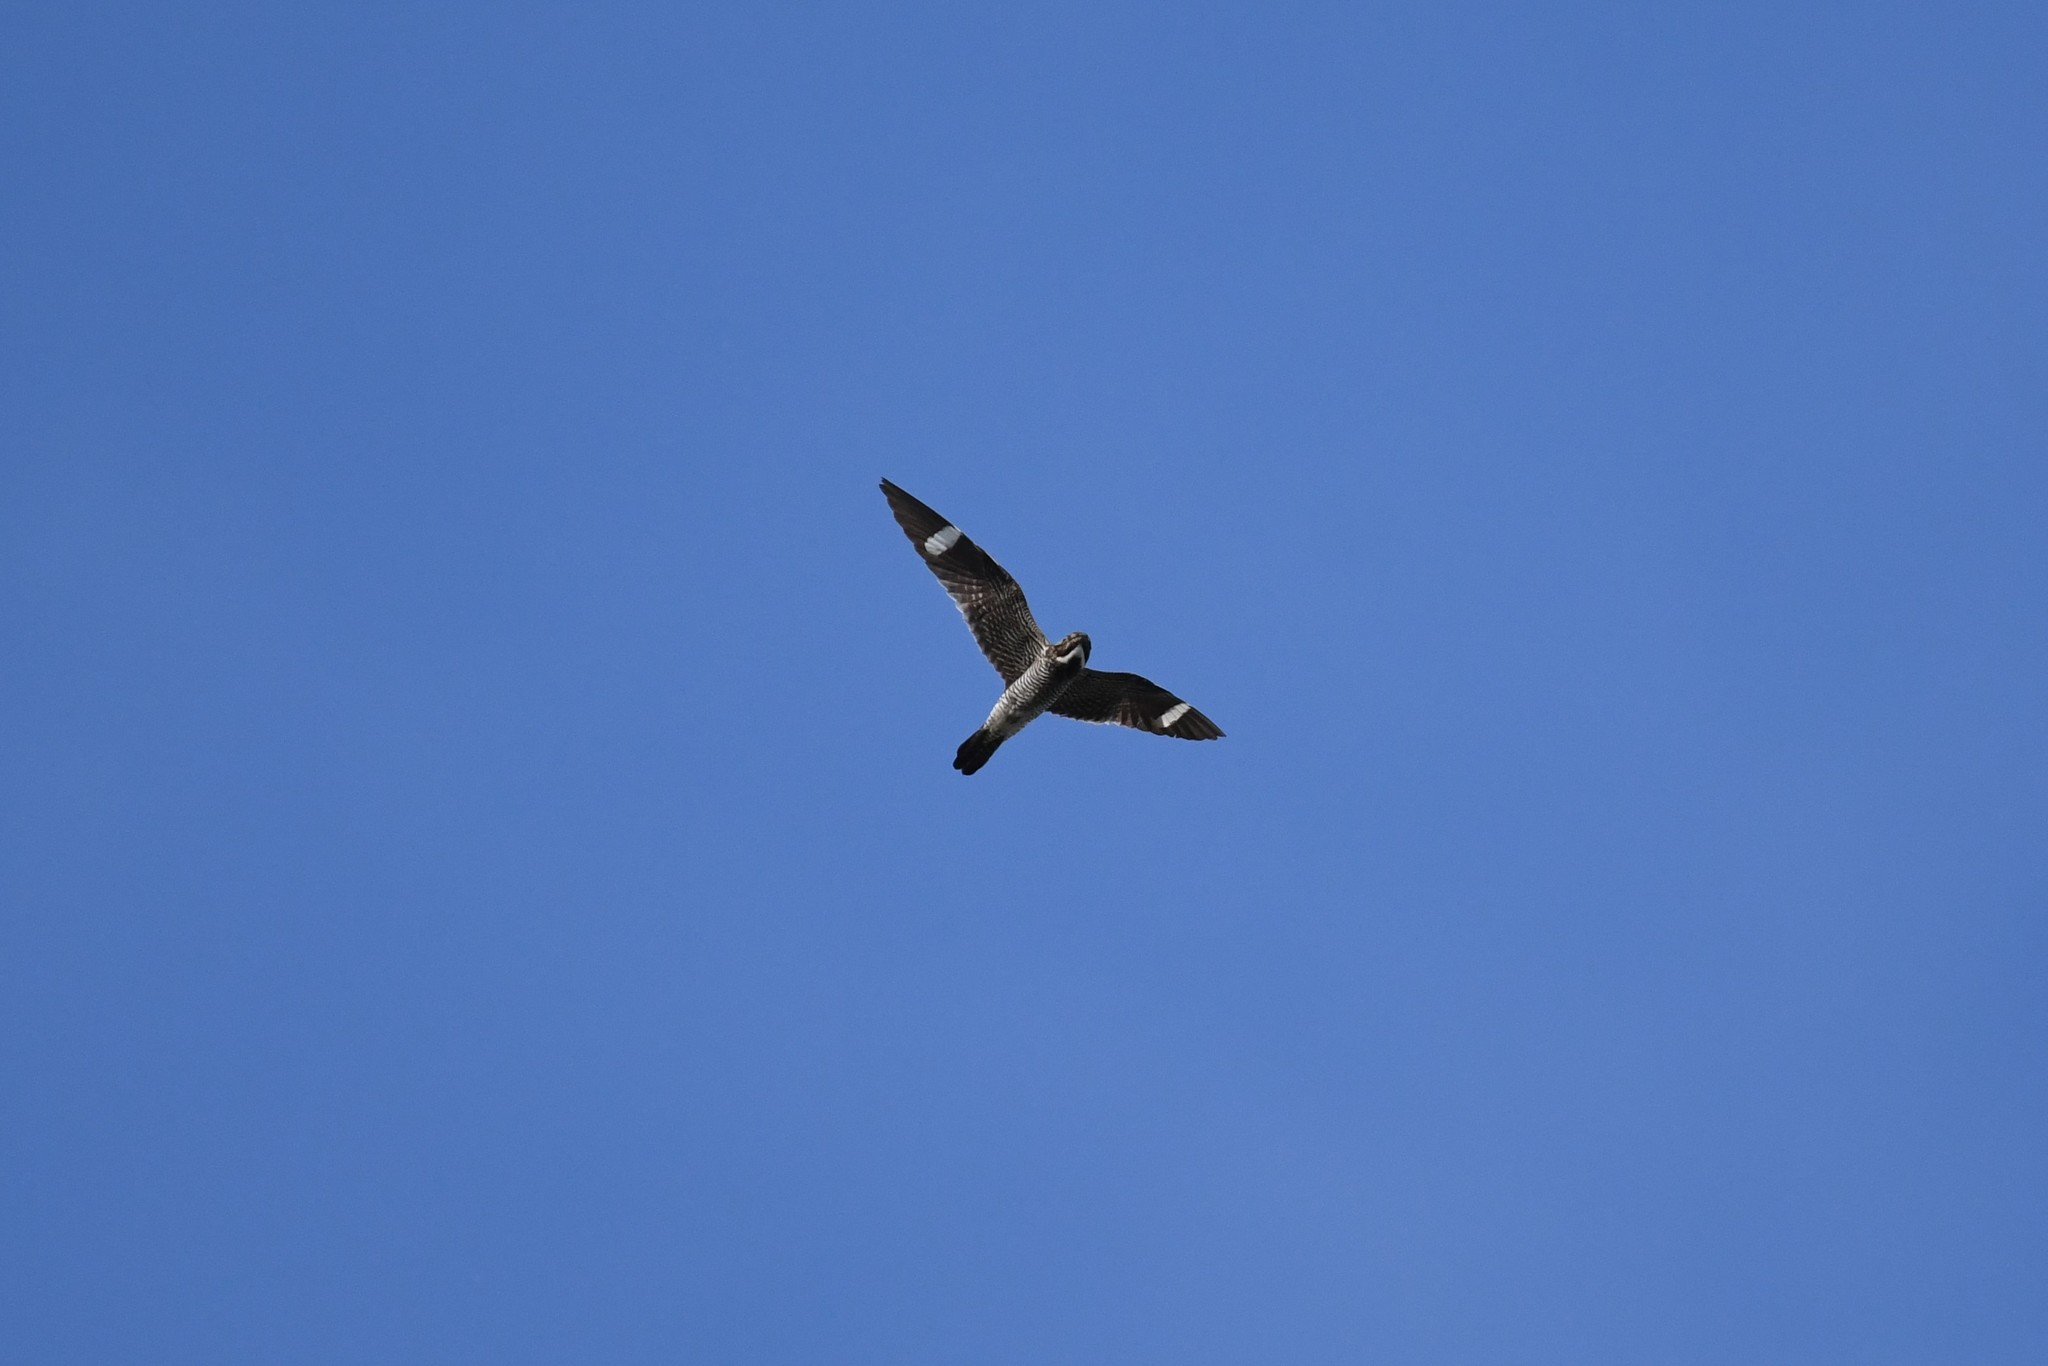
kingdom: Animalia
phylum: Chordata
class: Aves
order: Caprimulgiformes
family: Caprimulgidae
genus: Chordeiles
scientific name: Chordeiles minor
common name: Common nighthawk
